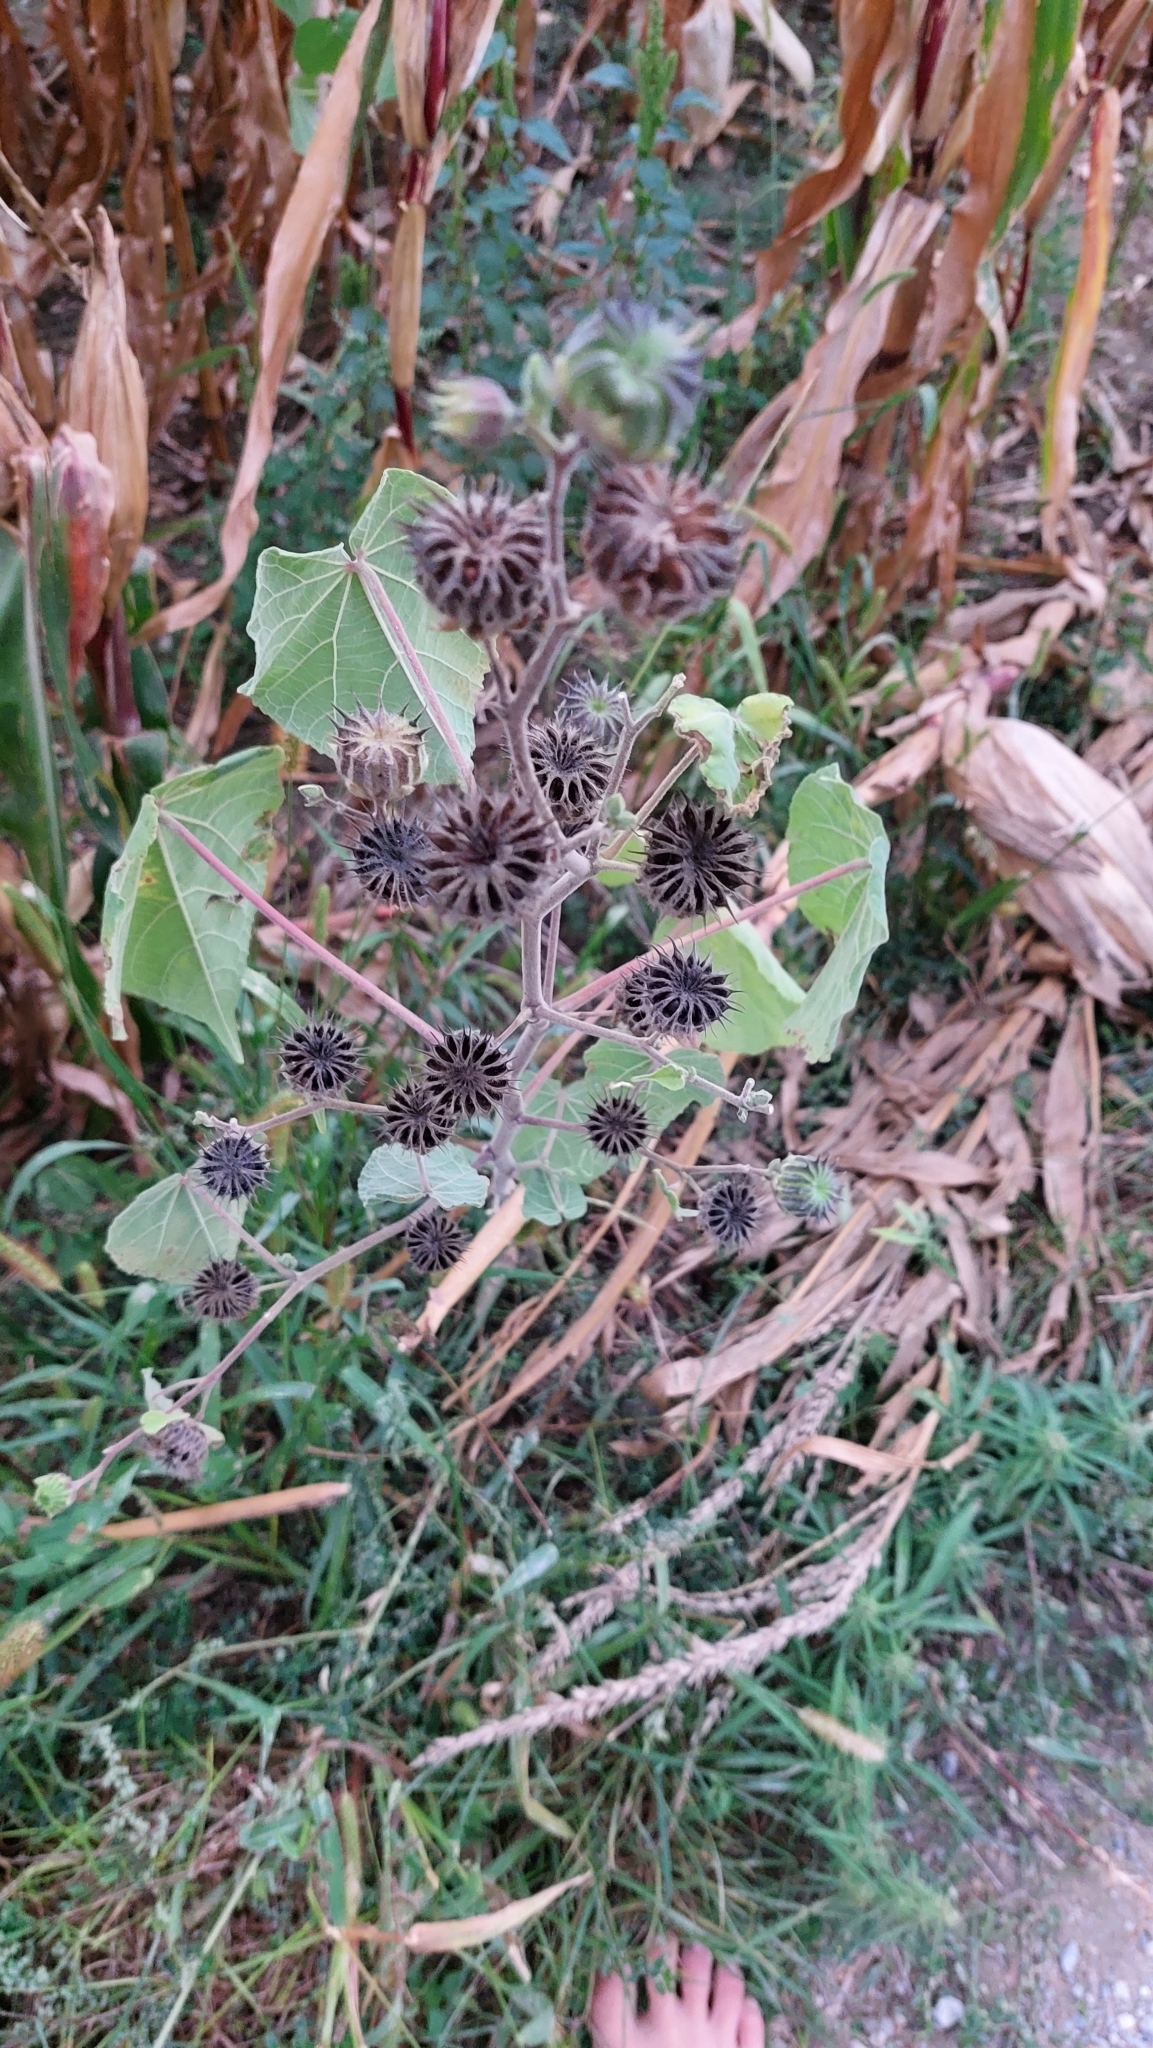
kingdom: Plantae
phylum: Tracheophyta
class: Magnoliopsida
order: Malvales
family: Malvaceae
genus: Abutilon
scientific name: Abutilon theophrasti
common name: Velvetleaf
